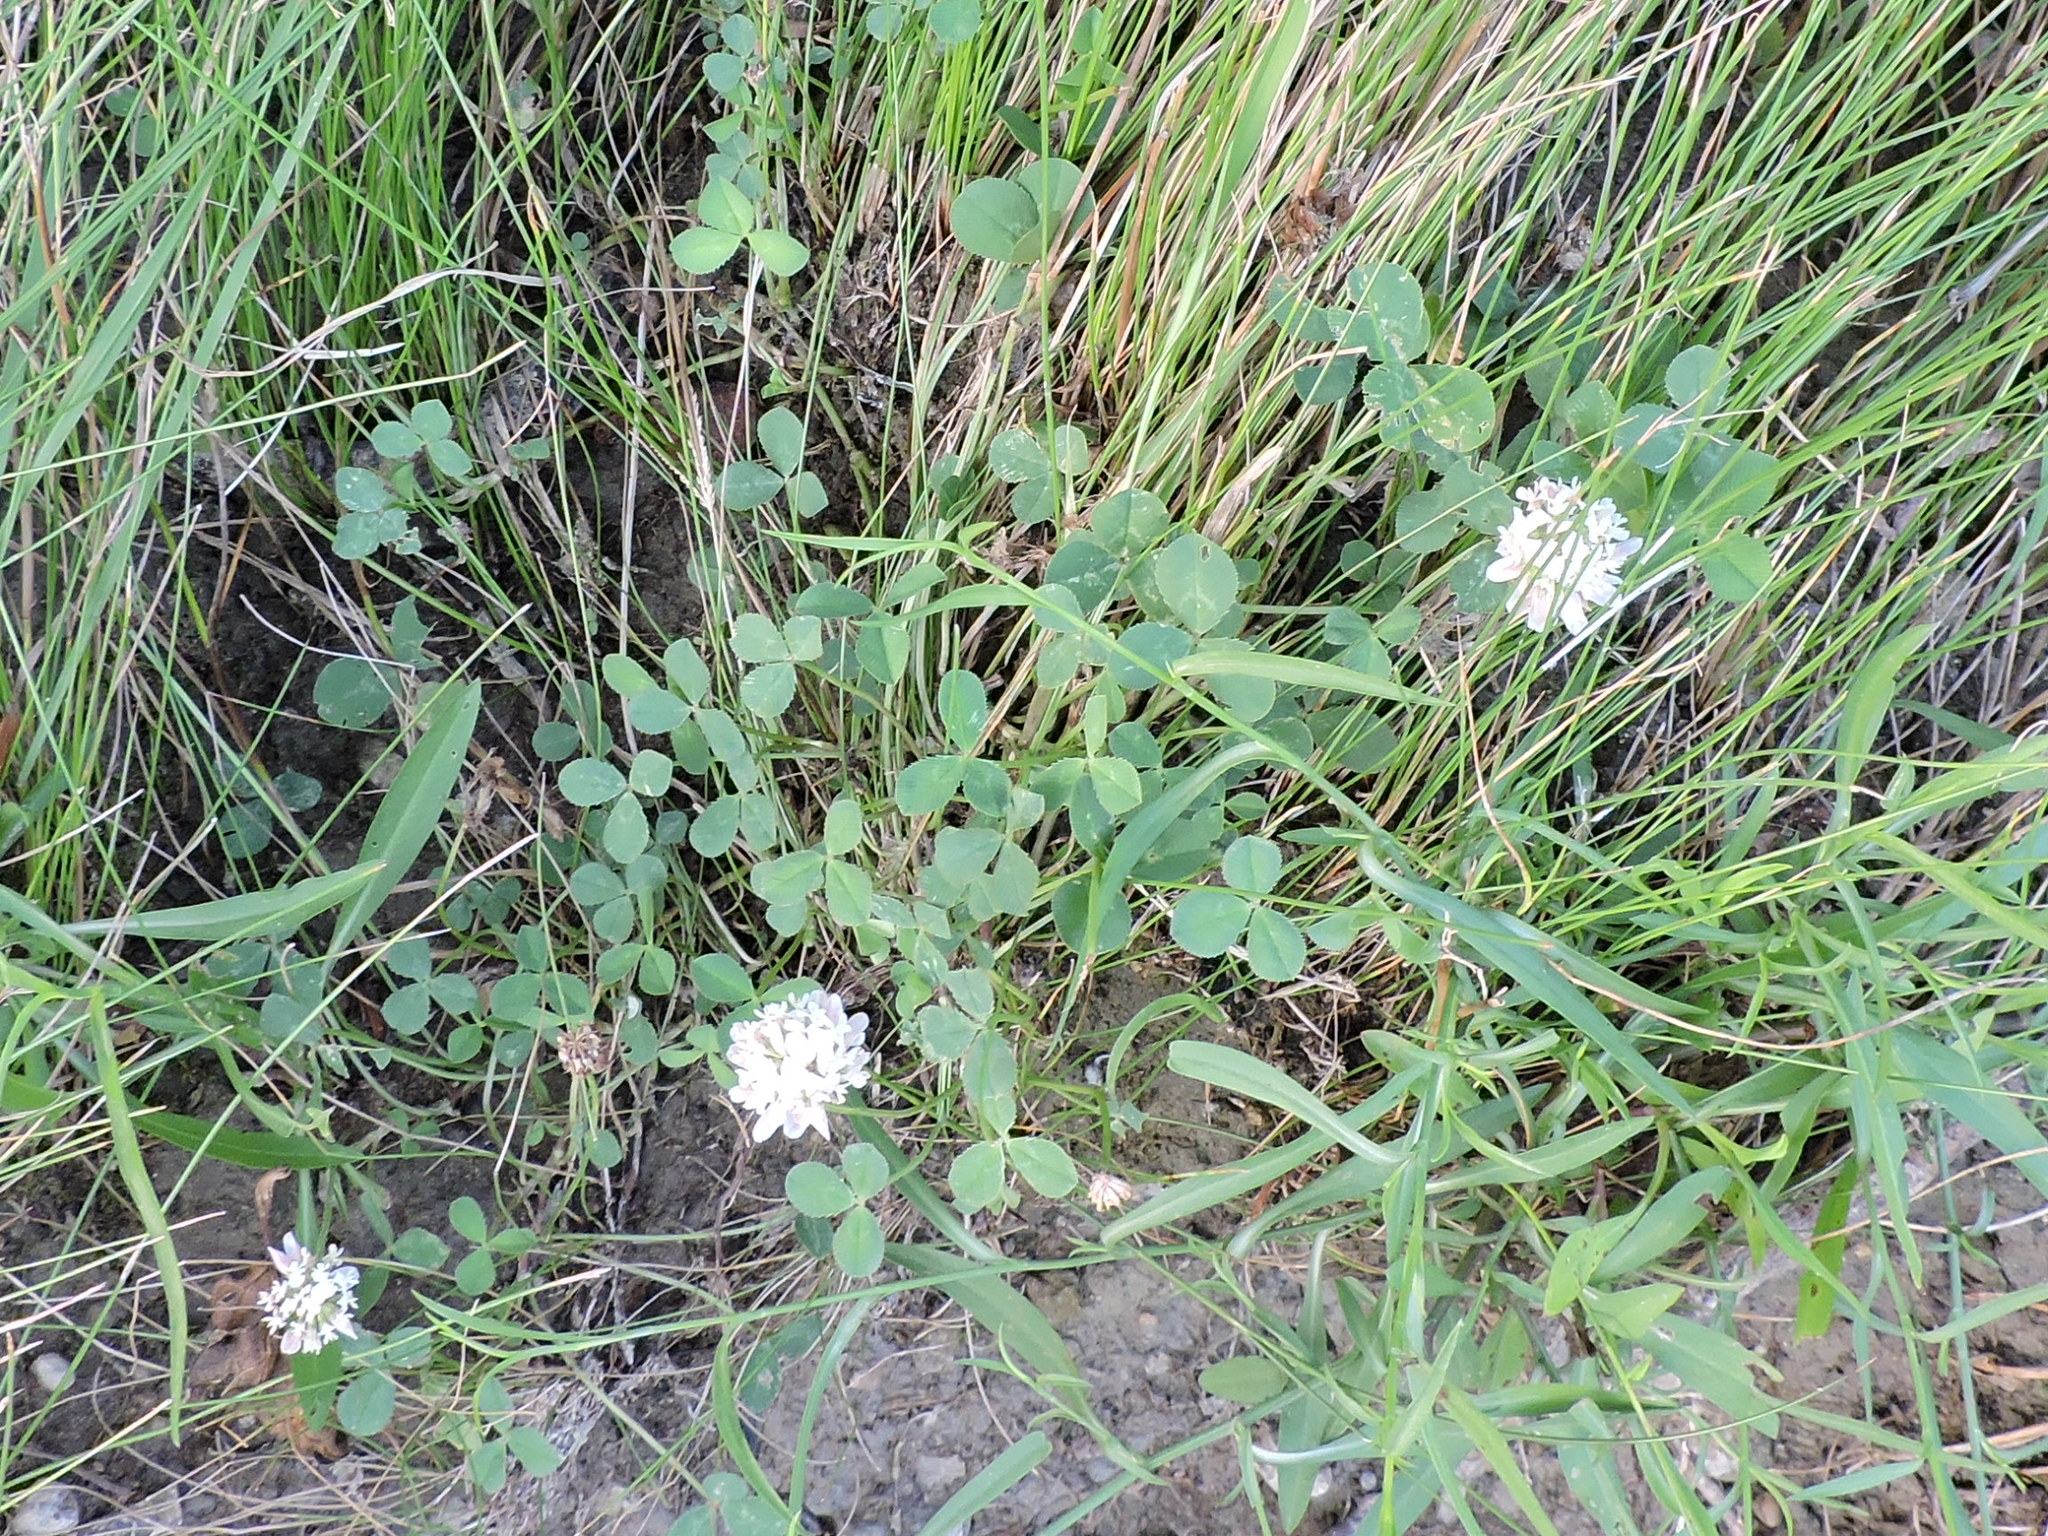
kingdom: Plantae
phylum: Tracheophyta
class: Magnoliopsida
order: Fabales
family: Fabaceae
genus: Trifolium
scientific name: Trifolium repens
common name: White clover
